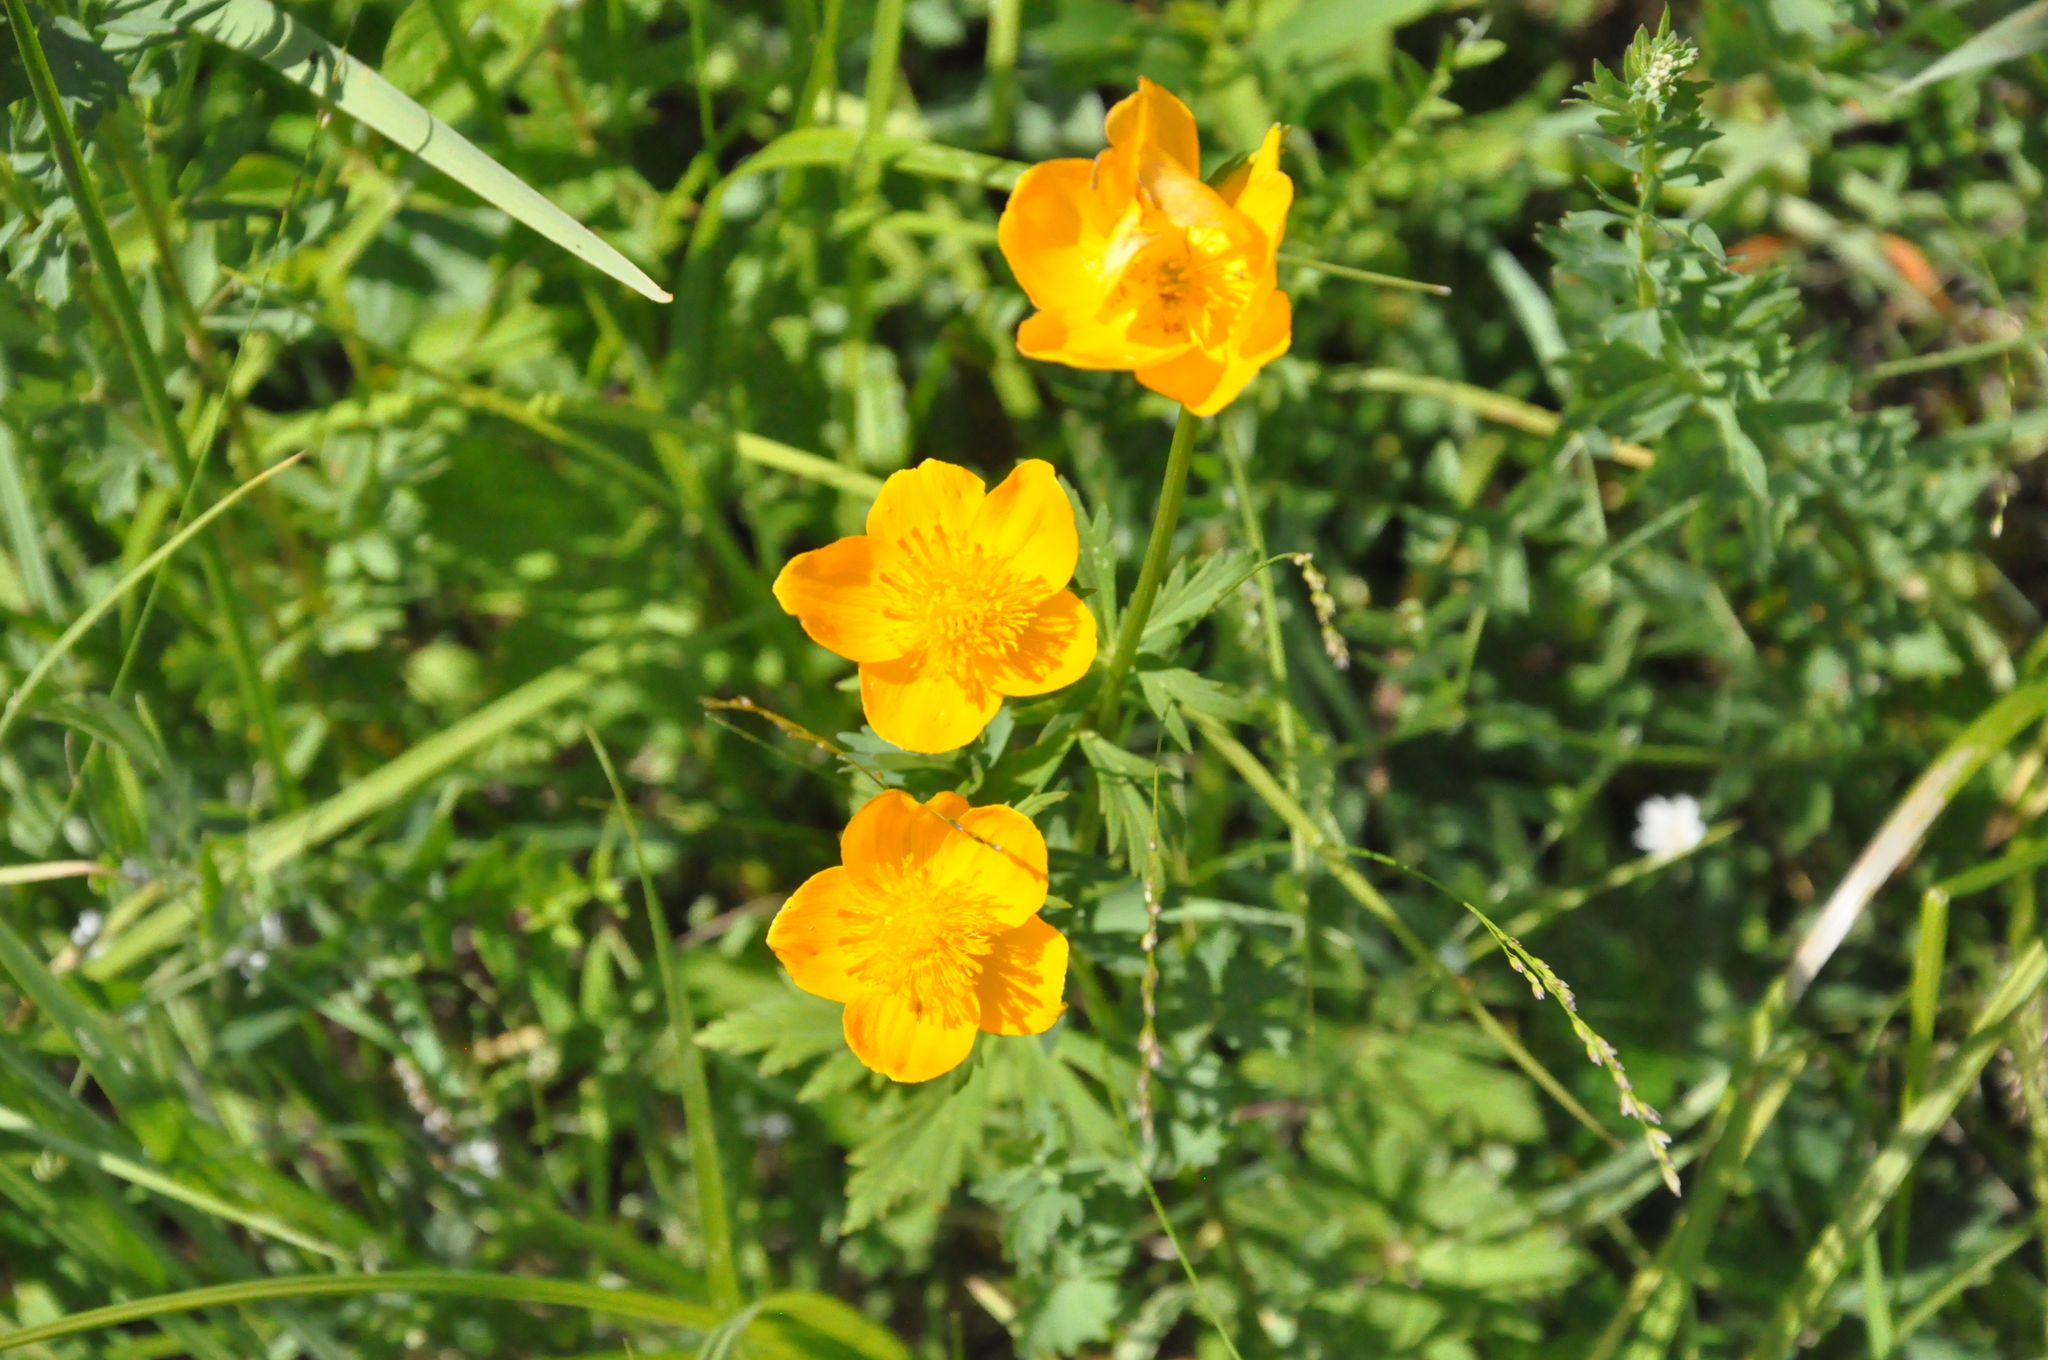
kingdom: Plantae
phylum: Tracheophyta
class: Magnoliopsida
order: Ranunculales
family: Ranunculaceae
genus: Trollius
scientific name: Trollius vicarius
